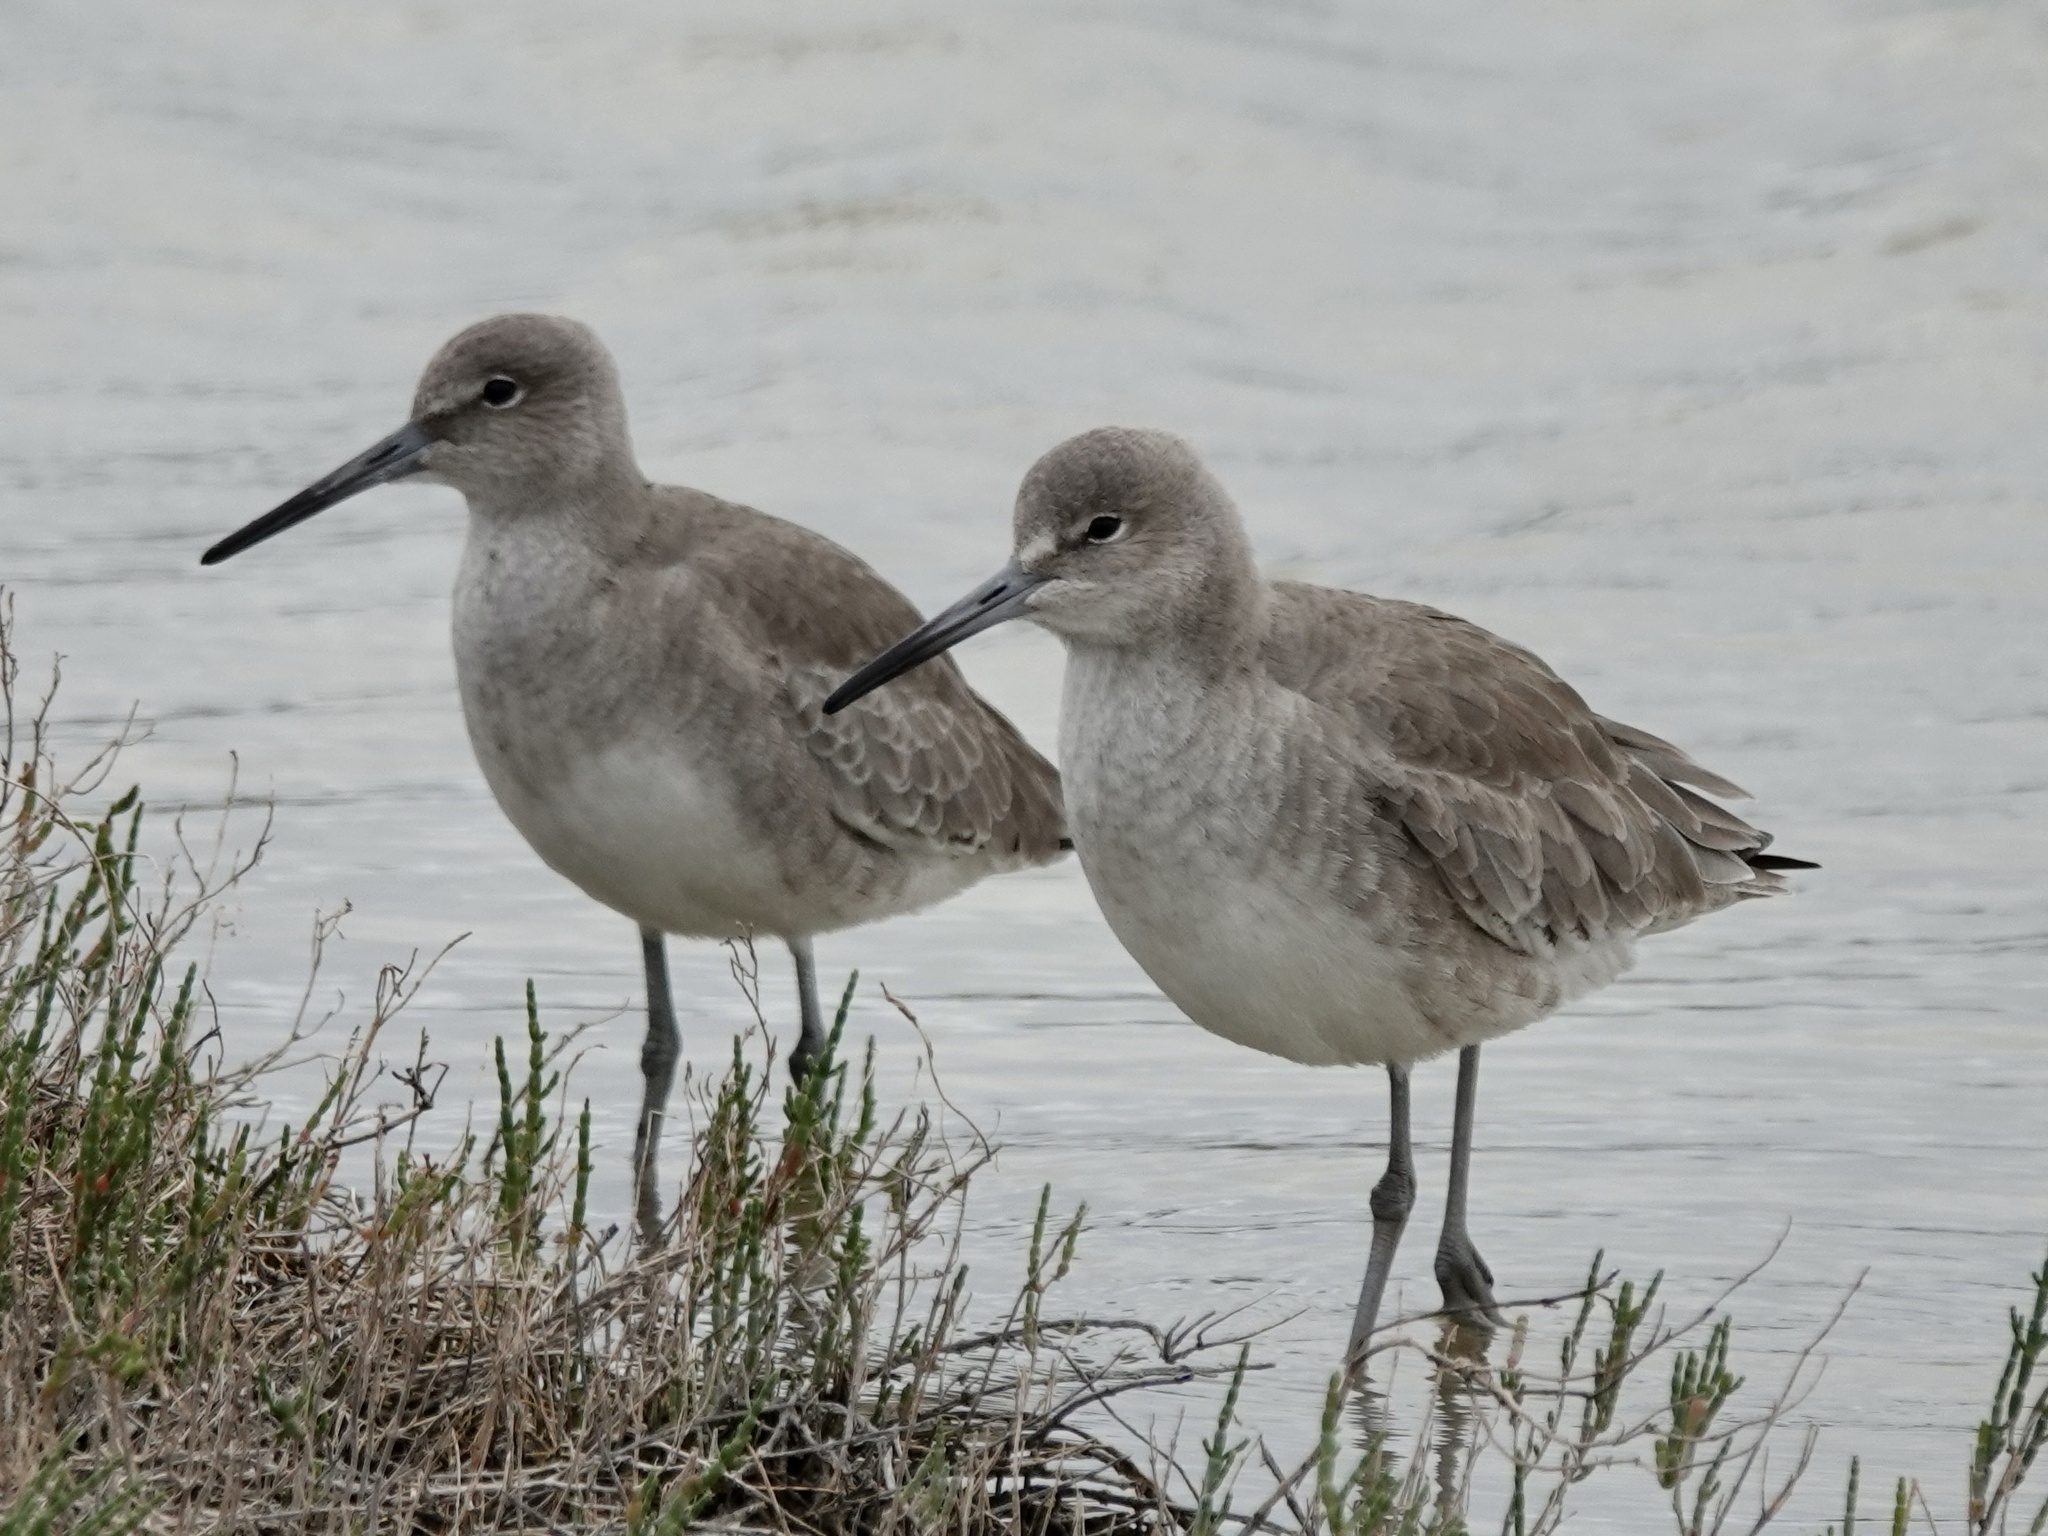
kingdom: Animalia
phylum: Chordata
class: Aves
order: Charadriiformes
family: Scolopacidae
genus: Tringa
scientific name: Tringa semipalmata
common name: Willet
